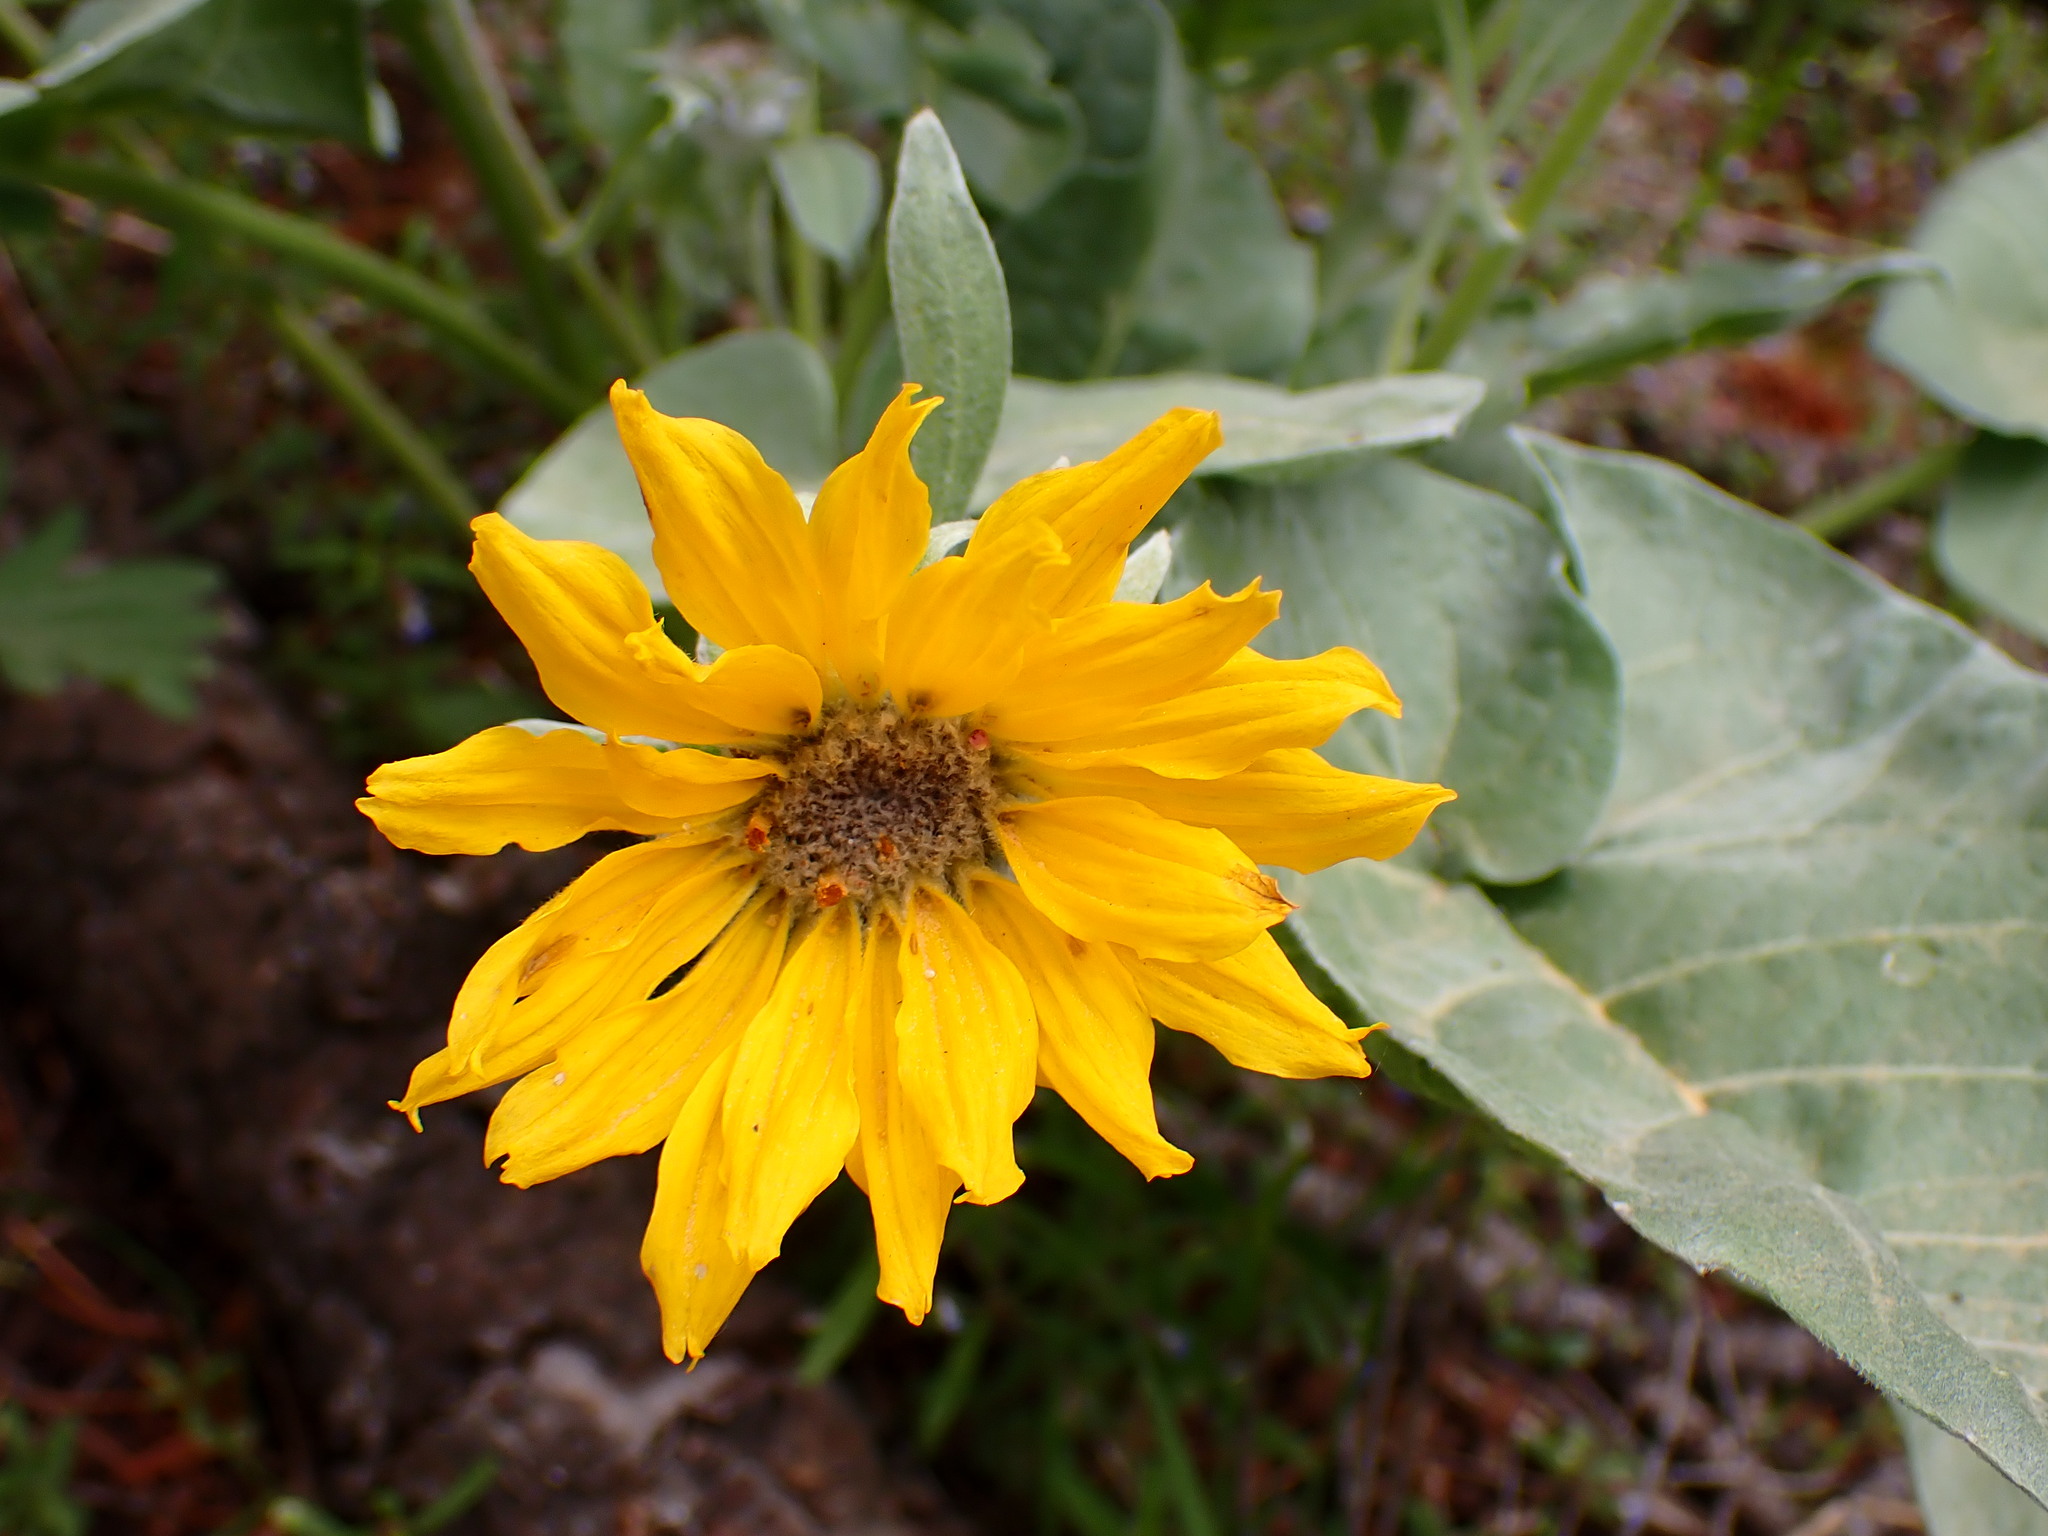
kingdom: Plantae
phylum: Tracheophyta
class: Magnoliopsida
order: Asterales
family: Asteraceae
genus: Wyethia
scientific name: Wyethia sagittata
